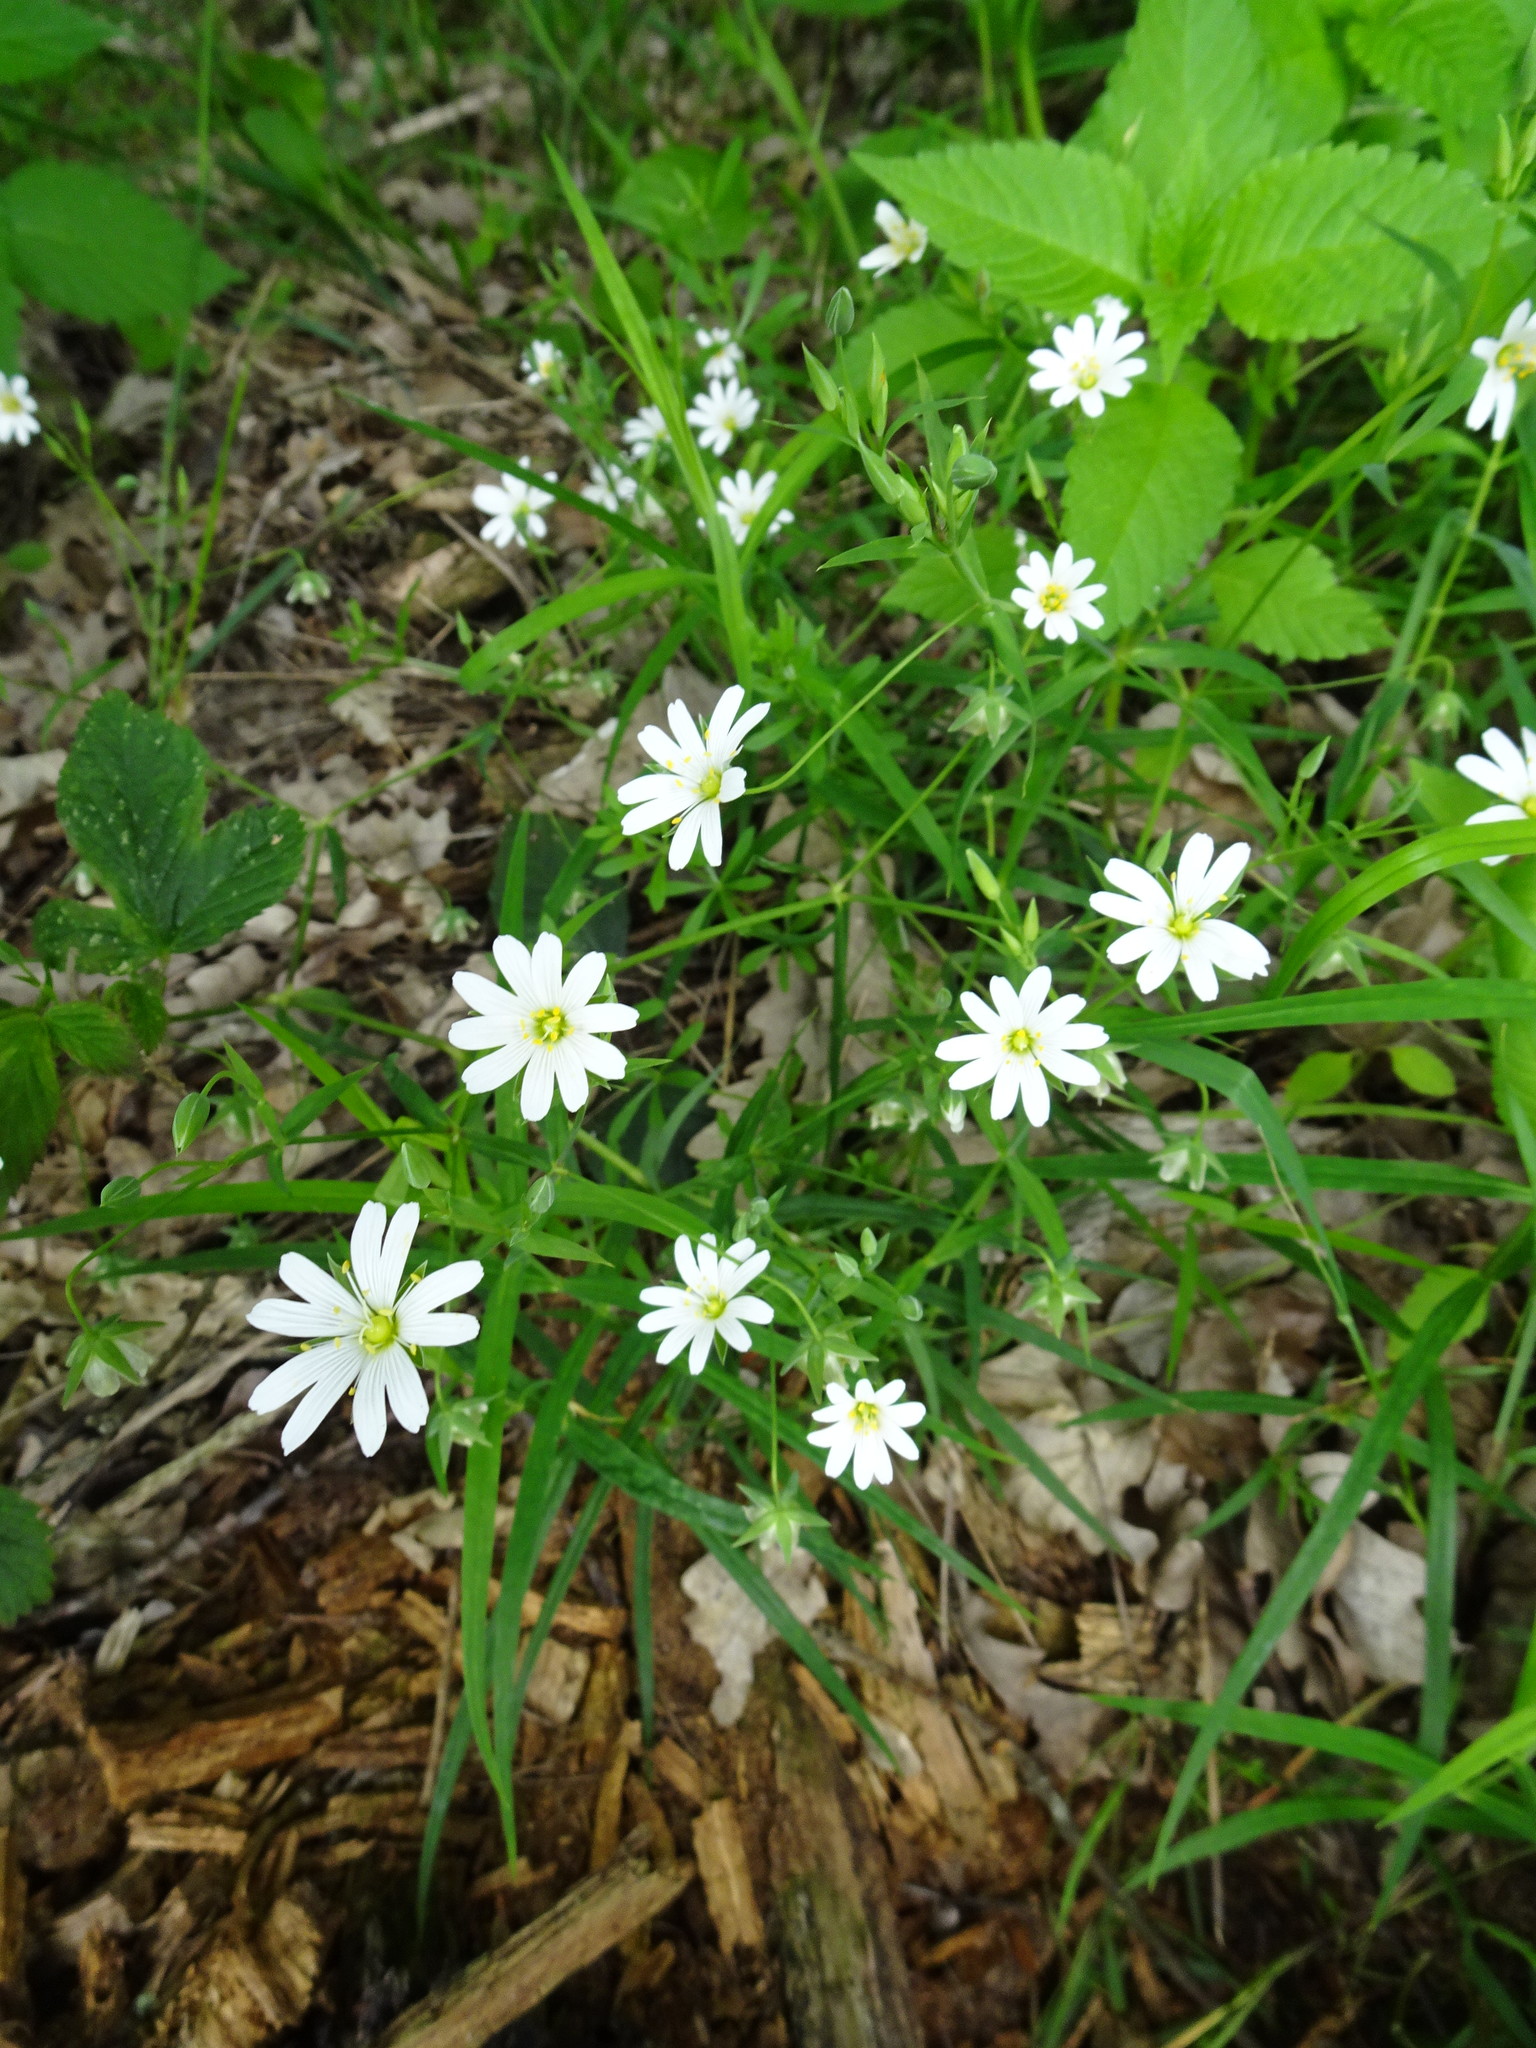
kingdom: Plantae
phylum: Tracheophyta
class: Magnoliopsida
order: Caryophyllales
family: Caryophyllaceae
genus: Rabelera
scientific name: Rabelera holostea
